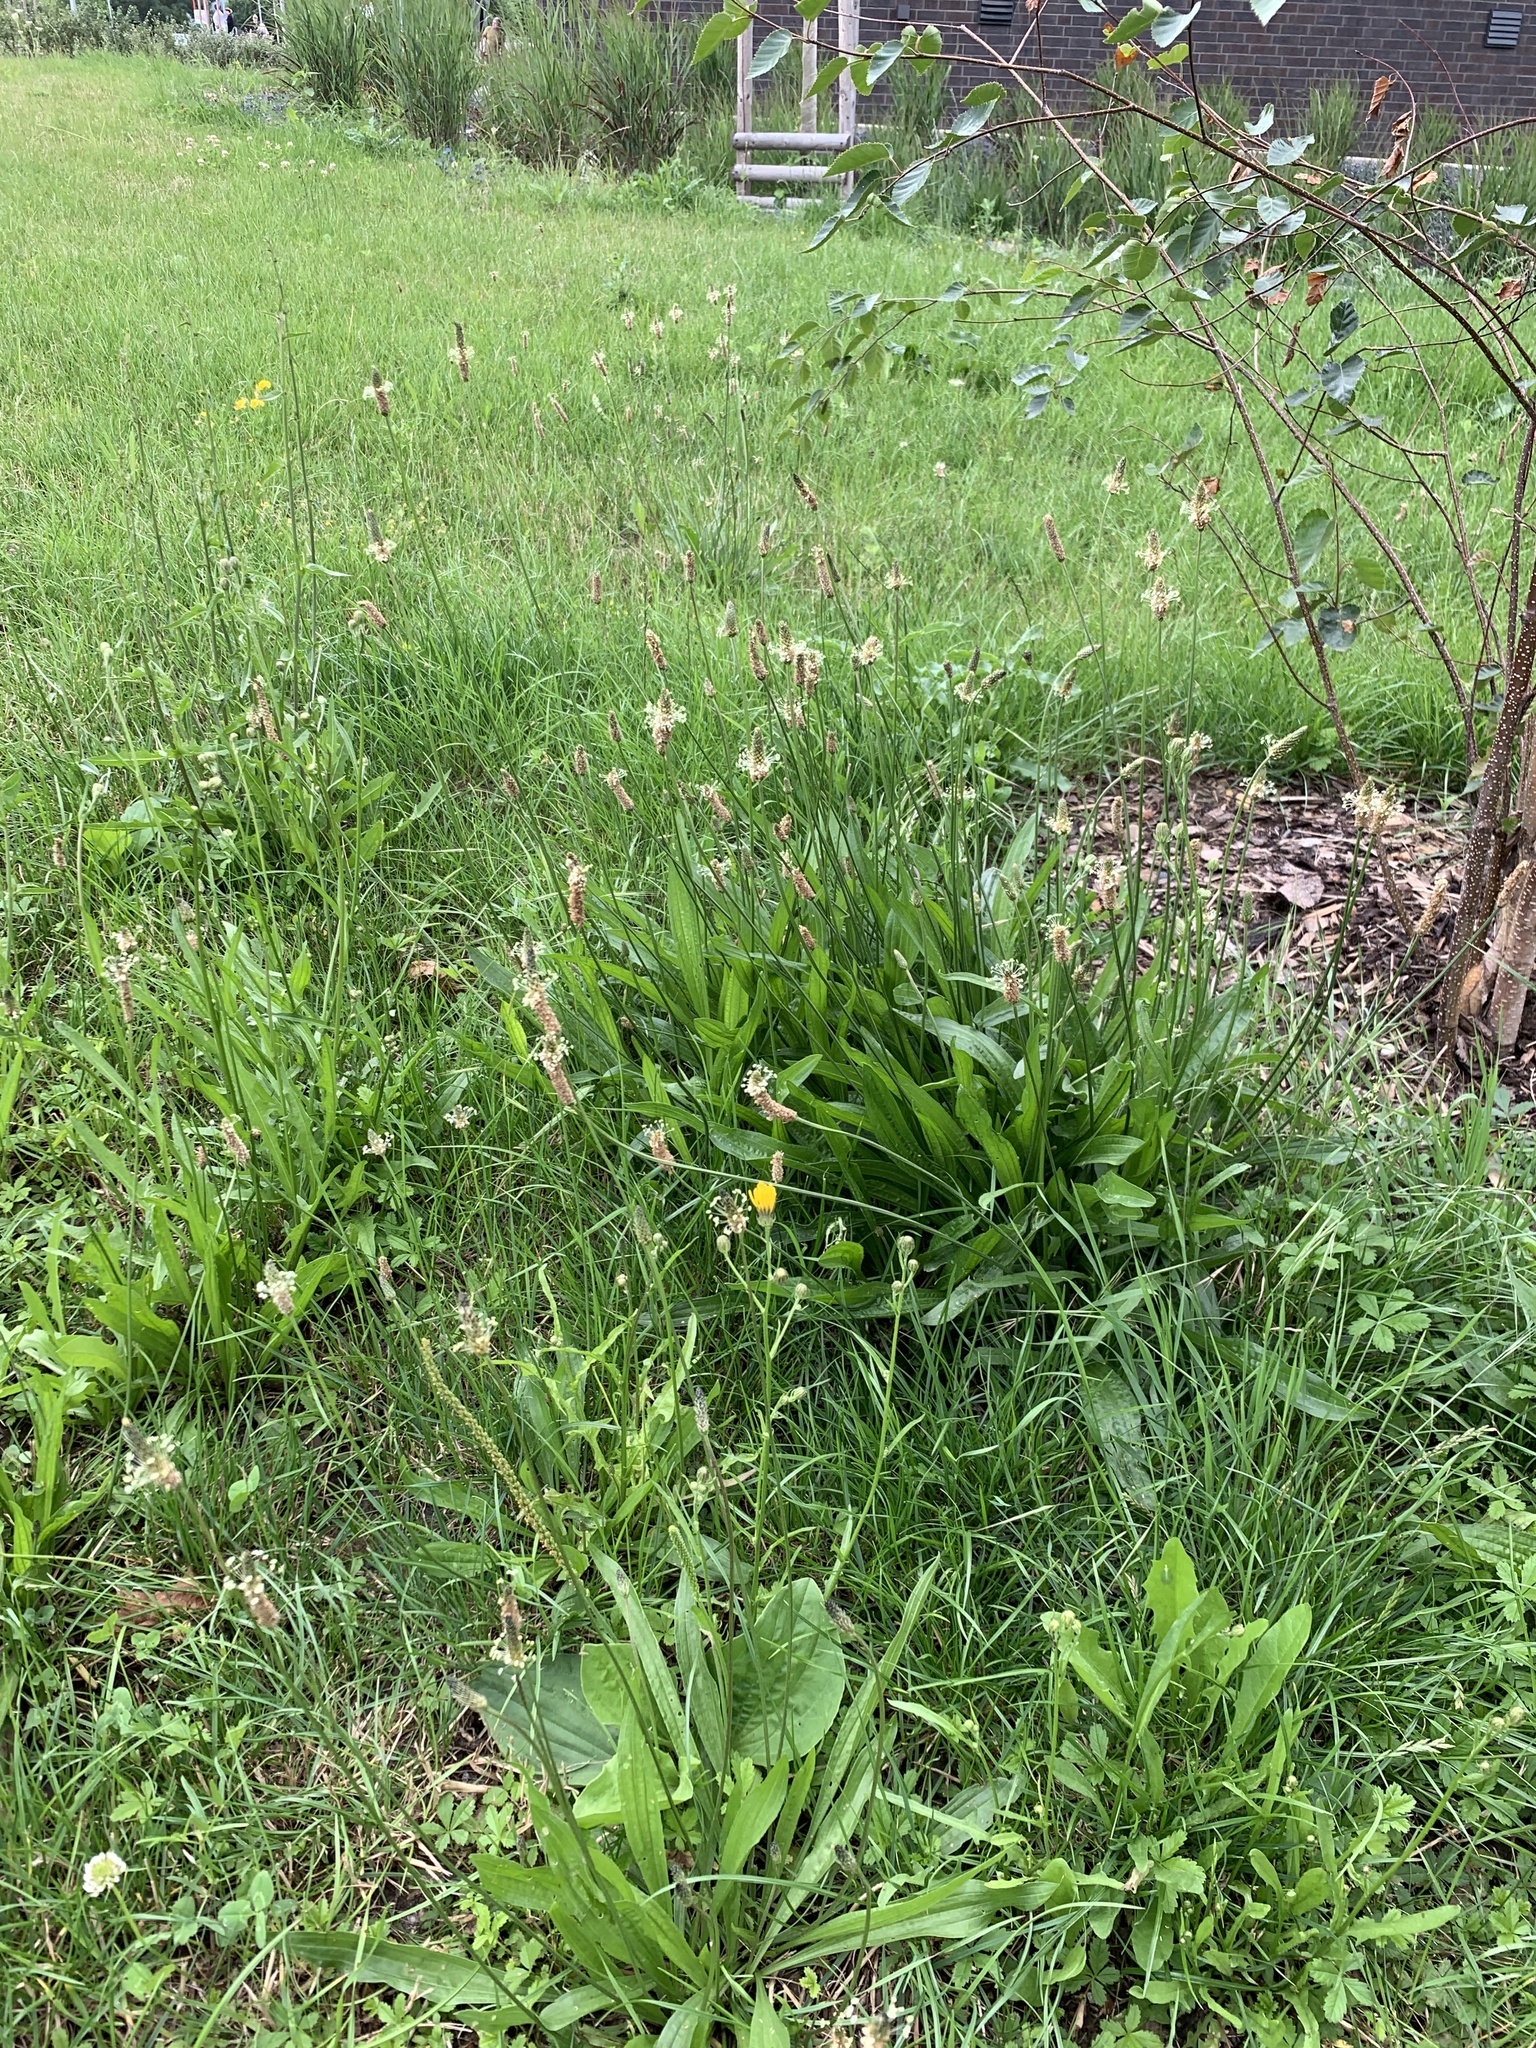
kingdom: Plantae
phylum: Tracheophyta
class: Magnoliopsida
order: Lamiales
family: Plantaginaceae
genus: Plantago
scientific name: Plantago lanceolata
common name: Ribwort plantain
